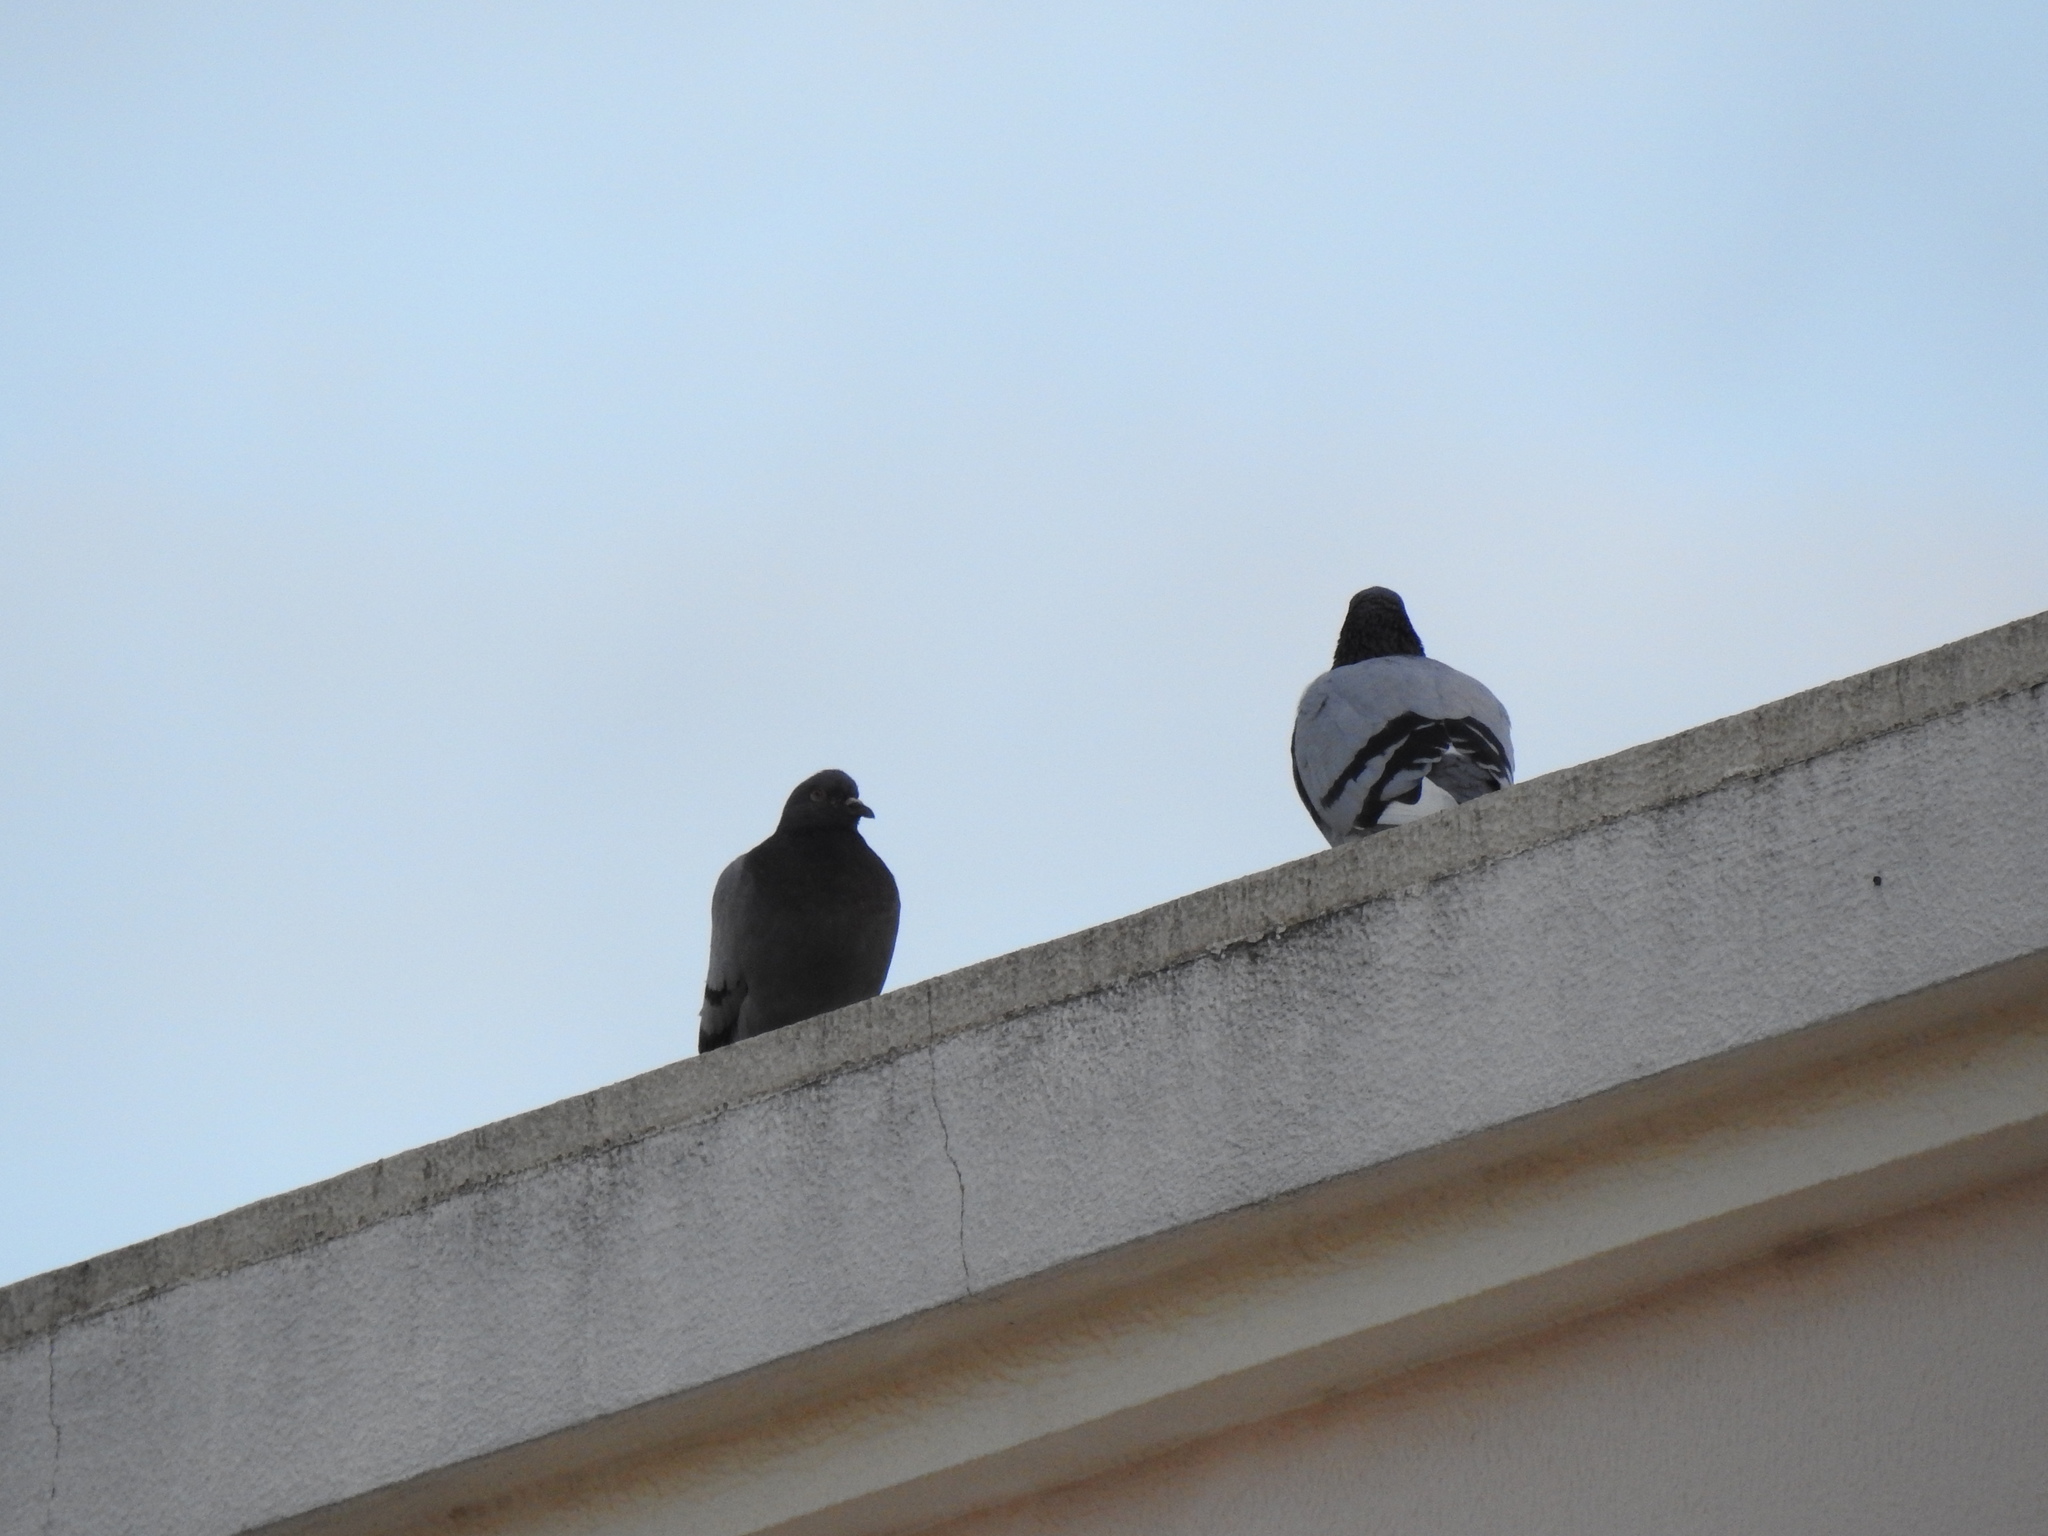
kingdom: Animalia
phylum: Chordata
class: Aves
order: Columbiformes
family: Columbidae
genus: Columba
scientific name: Columba livia
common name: Rock pigeon
